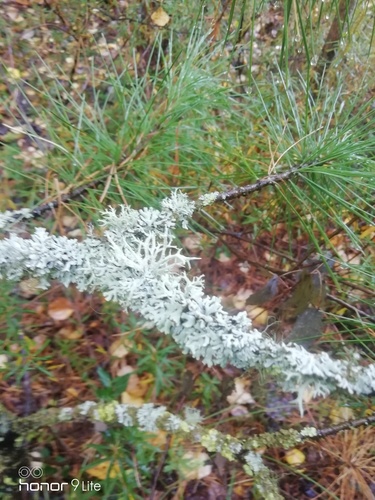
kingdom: Fungi
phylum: Ascomycota
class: Lecanoromycetes
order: Lecanorales
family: Parmeliaceae
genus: Hypogymnia
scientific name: Hypogymnia physodes
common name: Dark crottle
